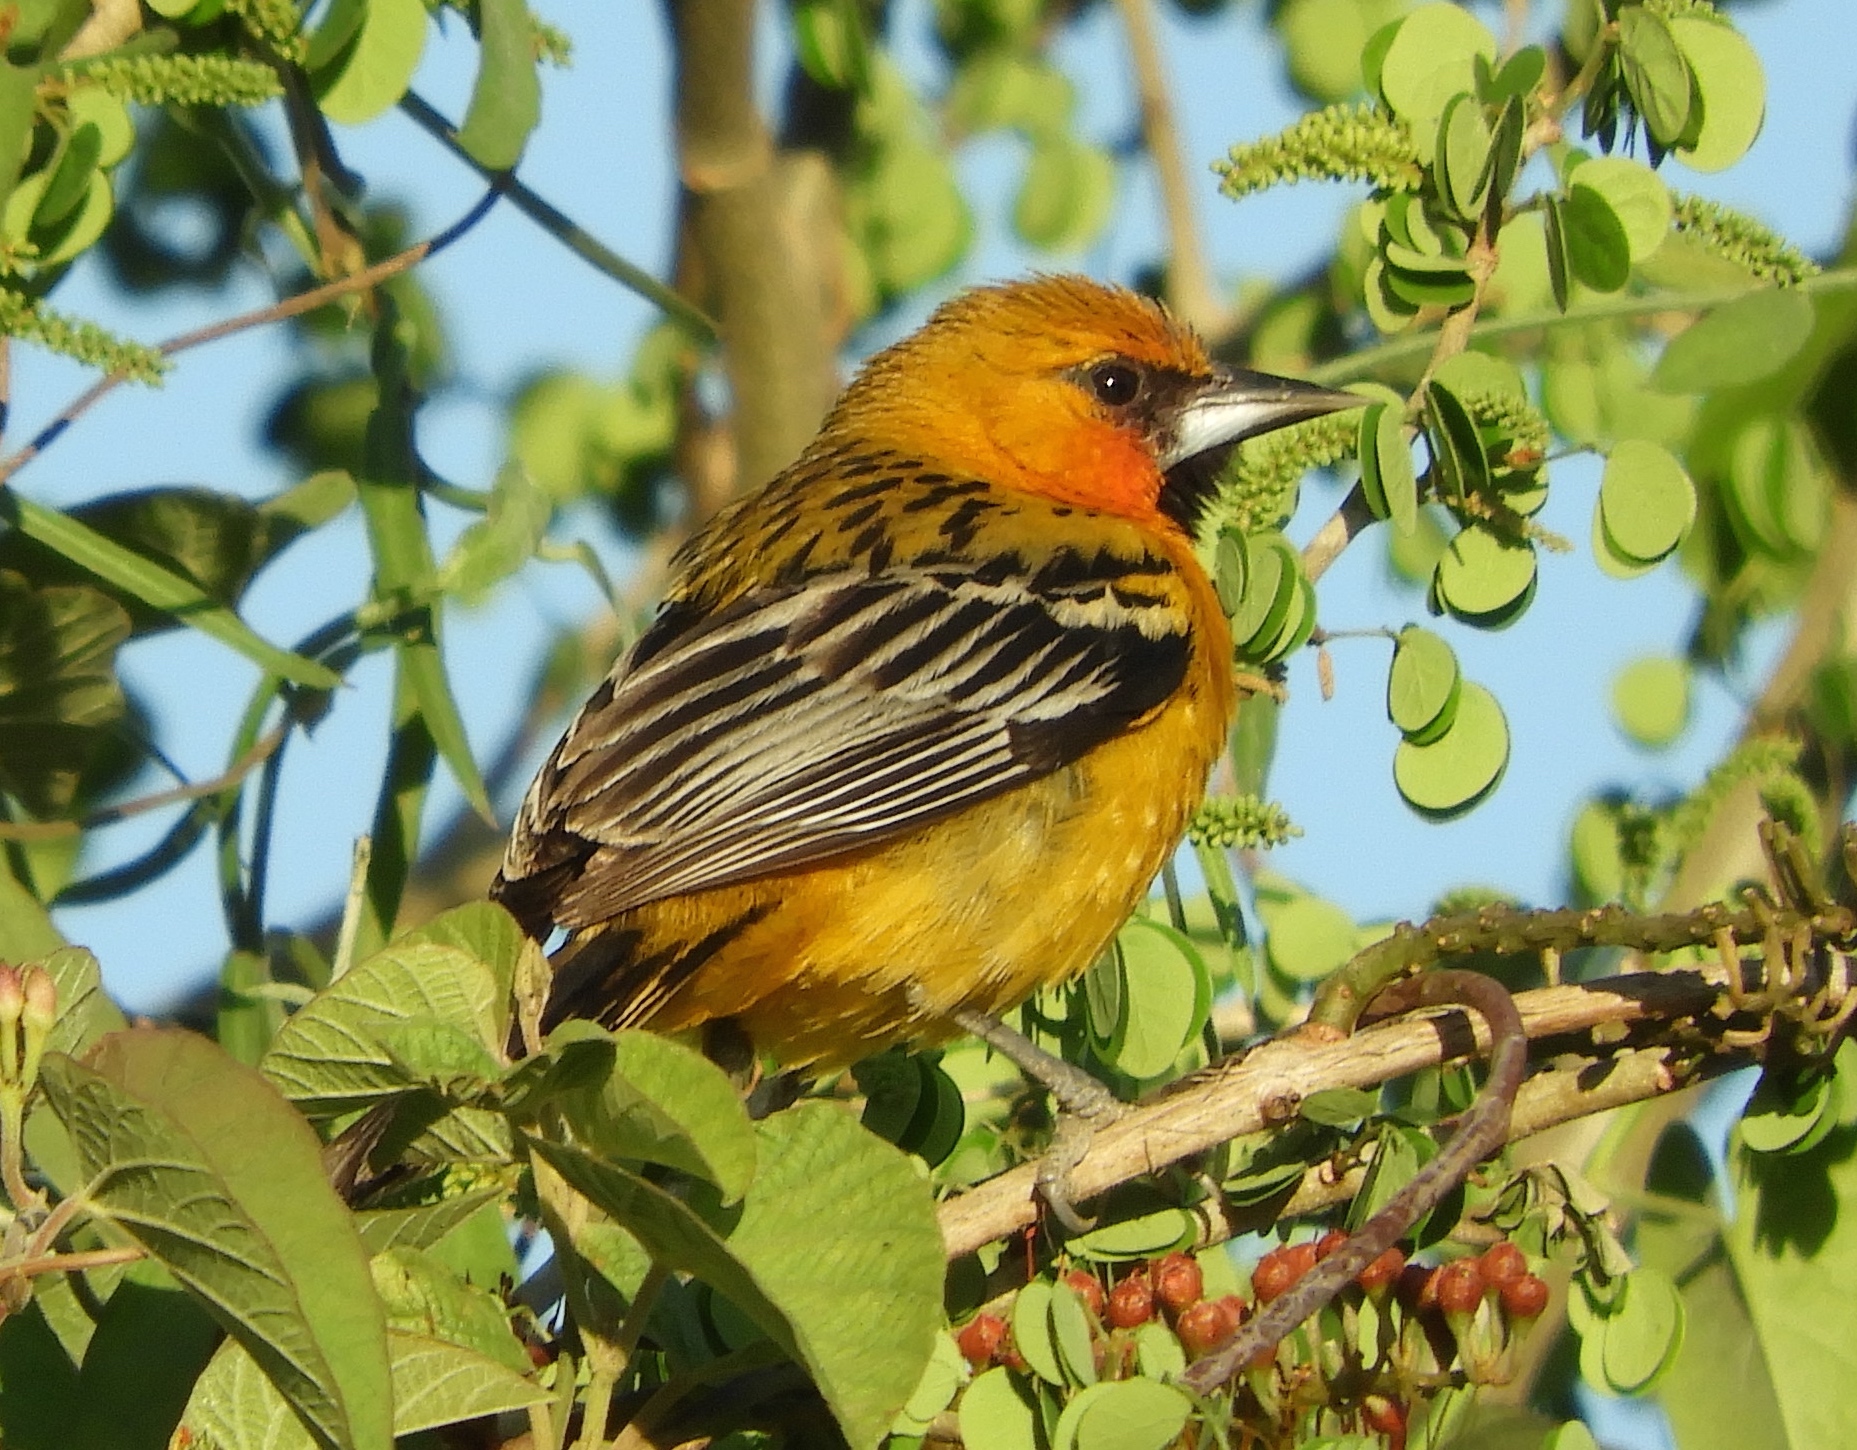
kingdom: Animalia
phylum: Chordata
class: Aves
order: Passeriformes
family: Icteridae
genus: Icterus
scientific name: Icterus pustulatus
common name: Streak-backed oriole
